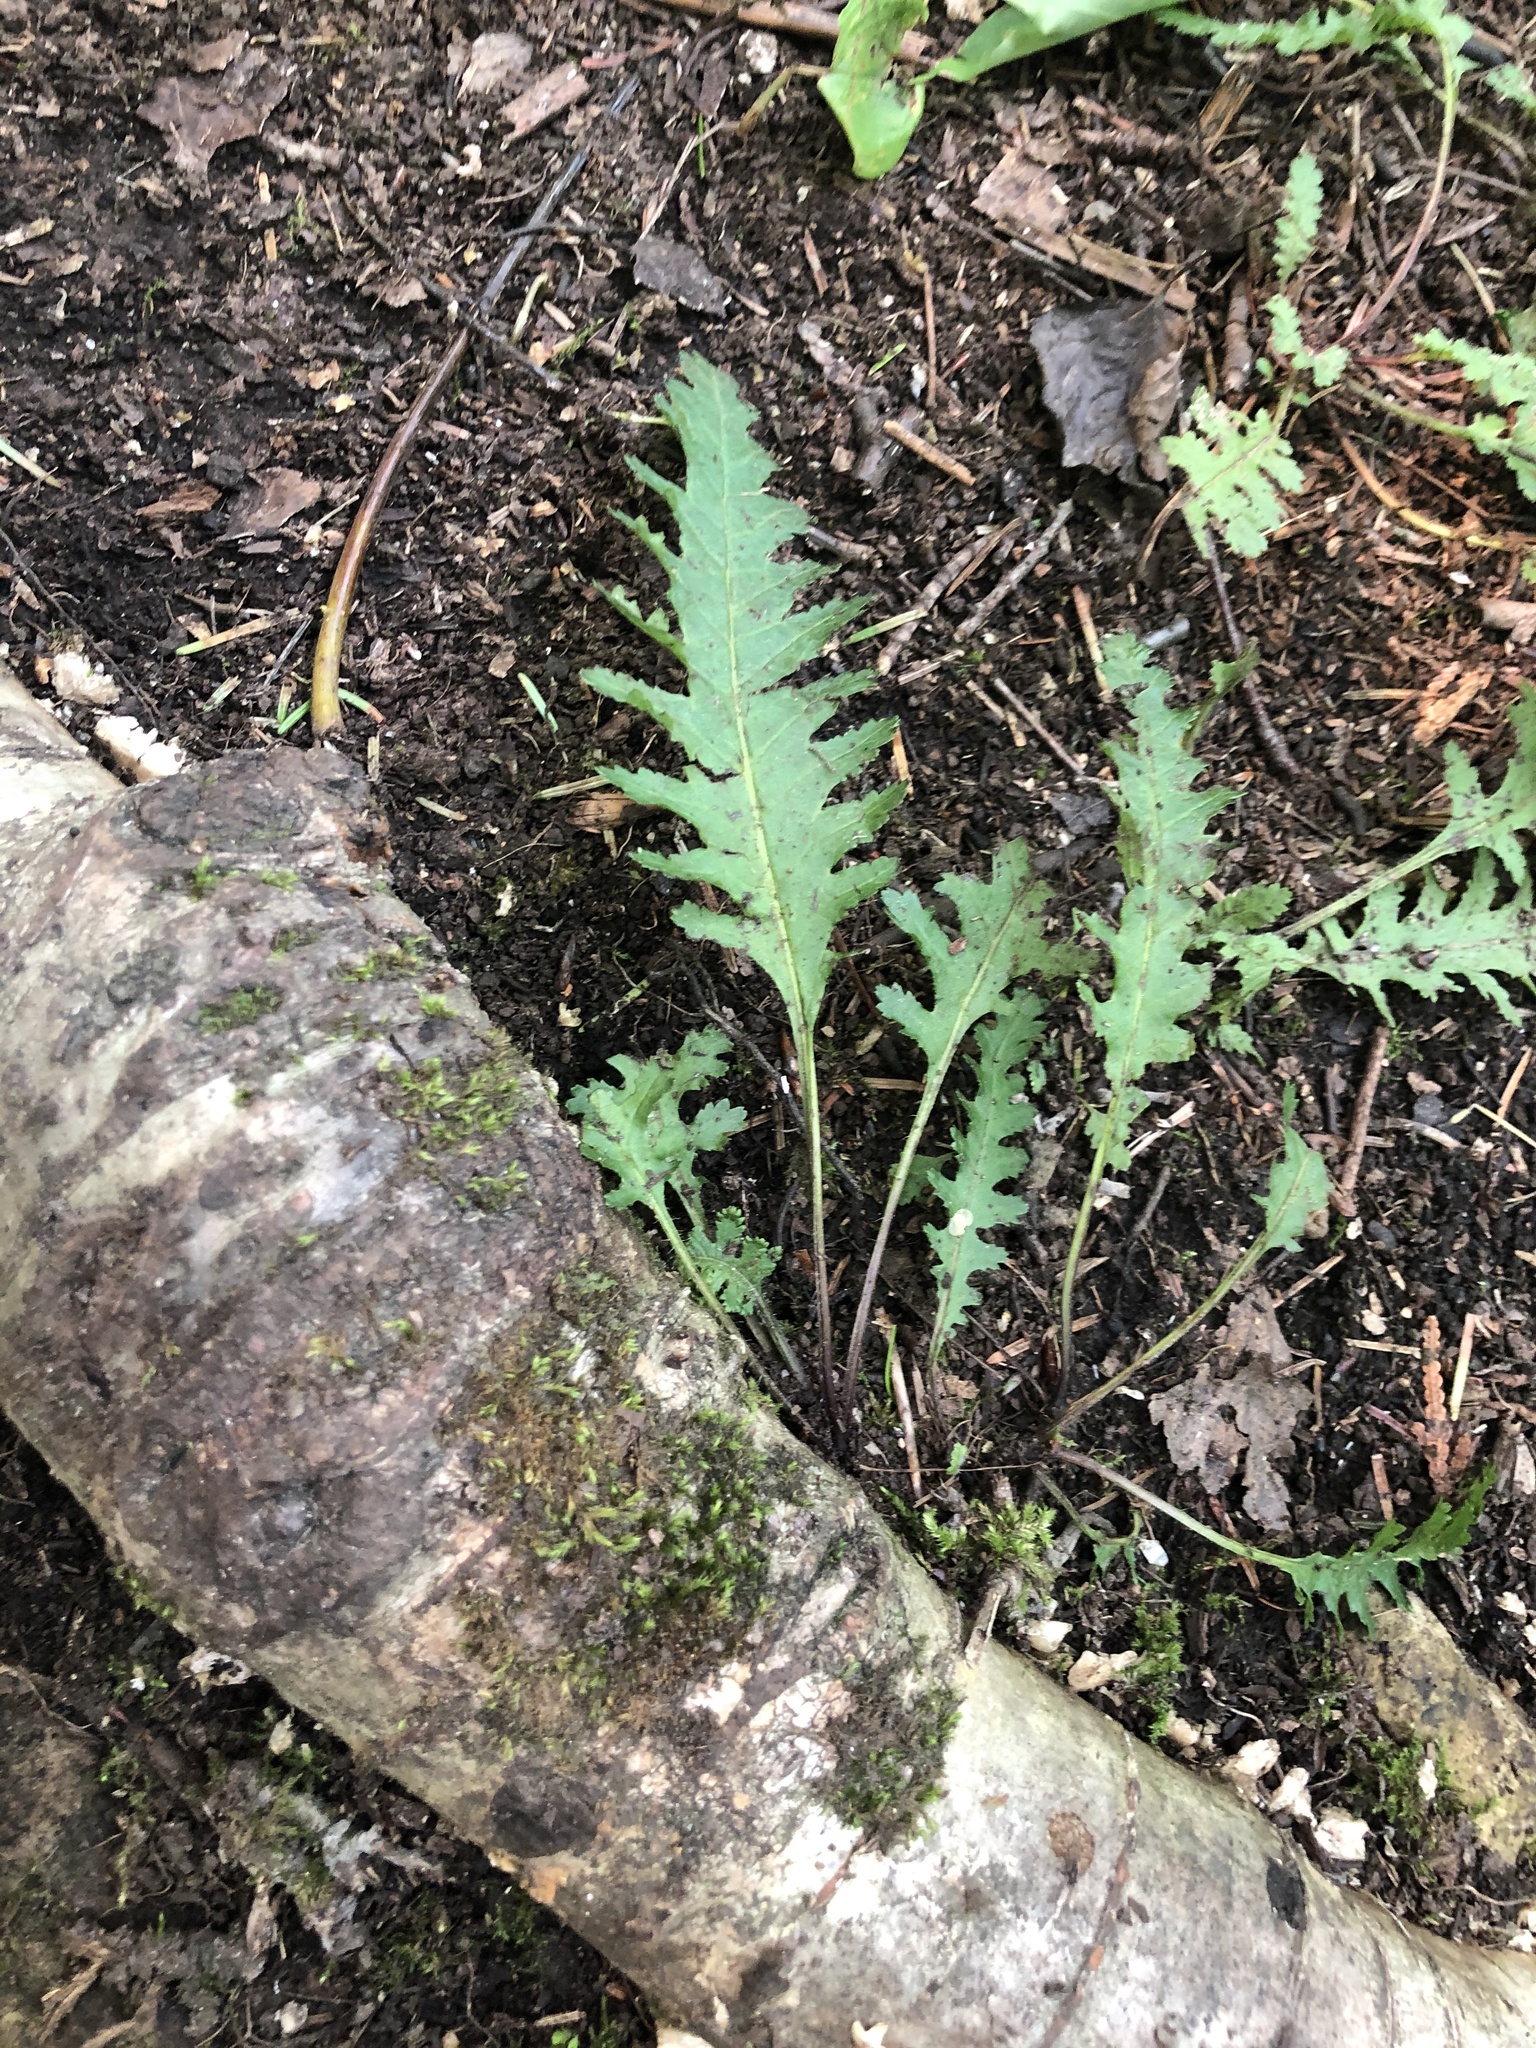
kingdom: Plantae
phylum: Tracheophyta
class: Magnoliopsida
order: Lamiales
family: Orobanchaceae
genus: Pedicularis
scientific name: Pedicularis canadensis
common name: Early lousewort
